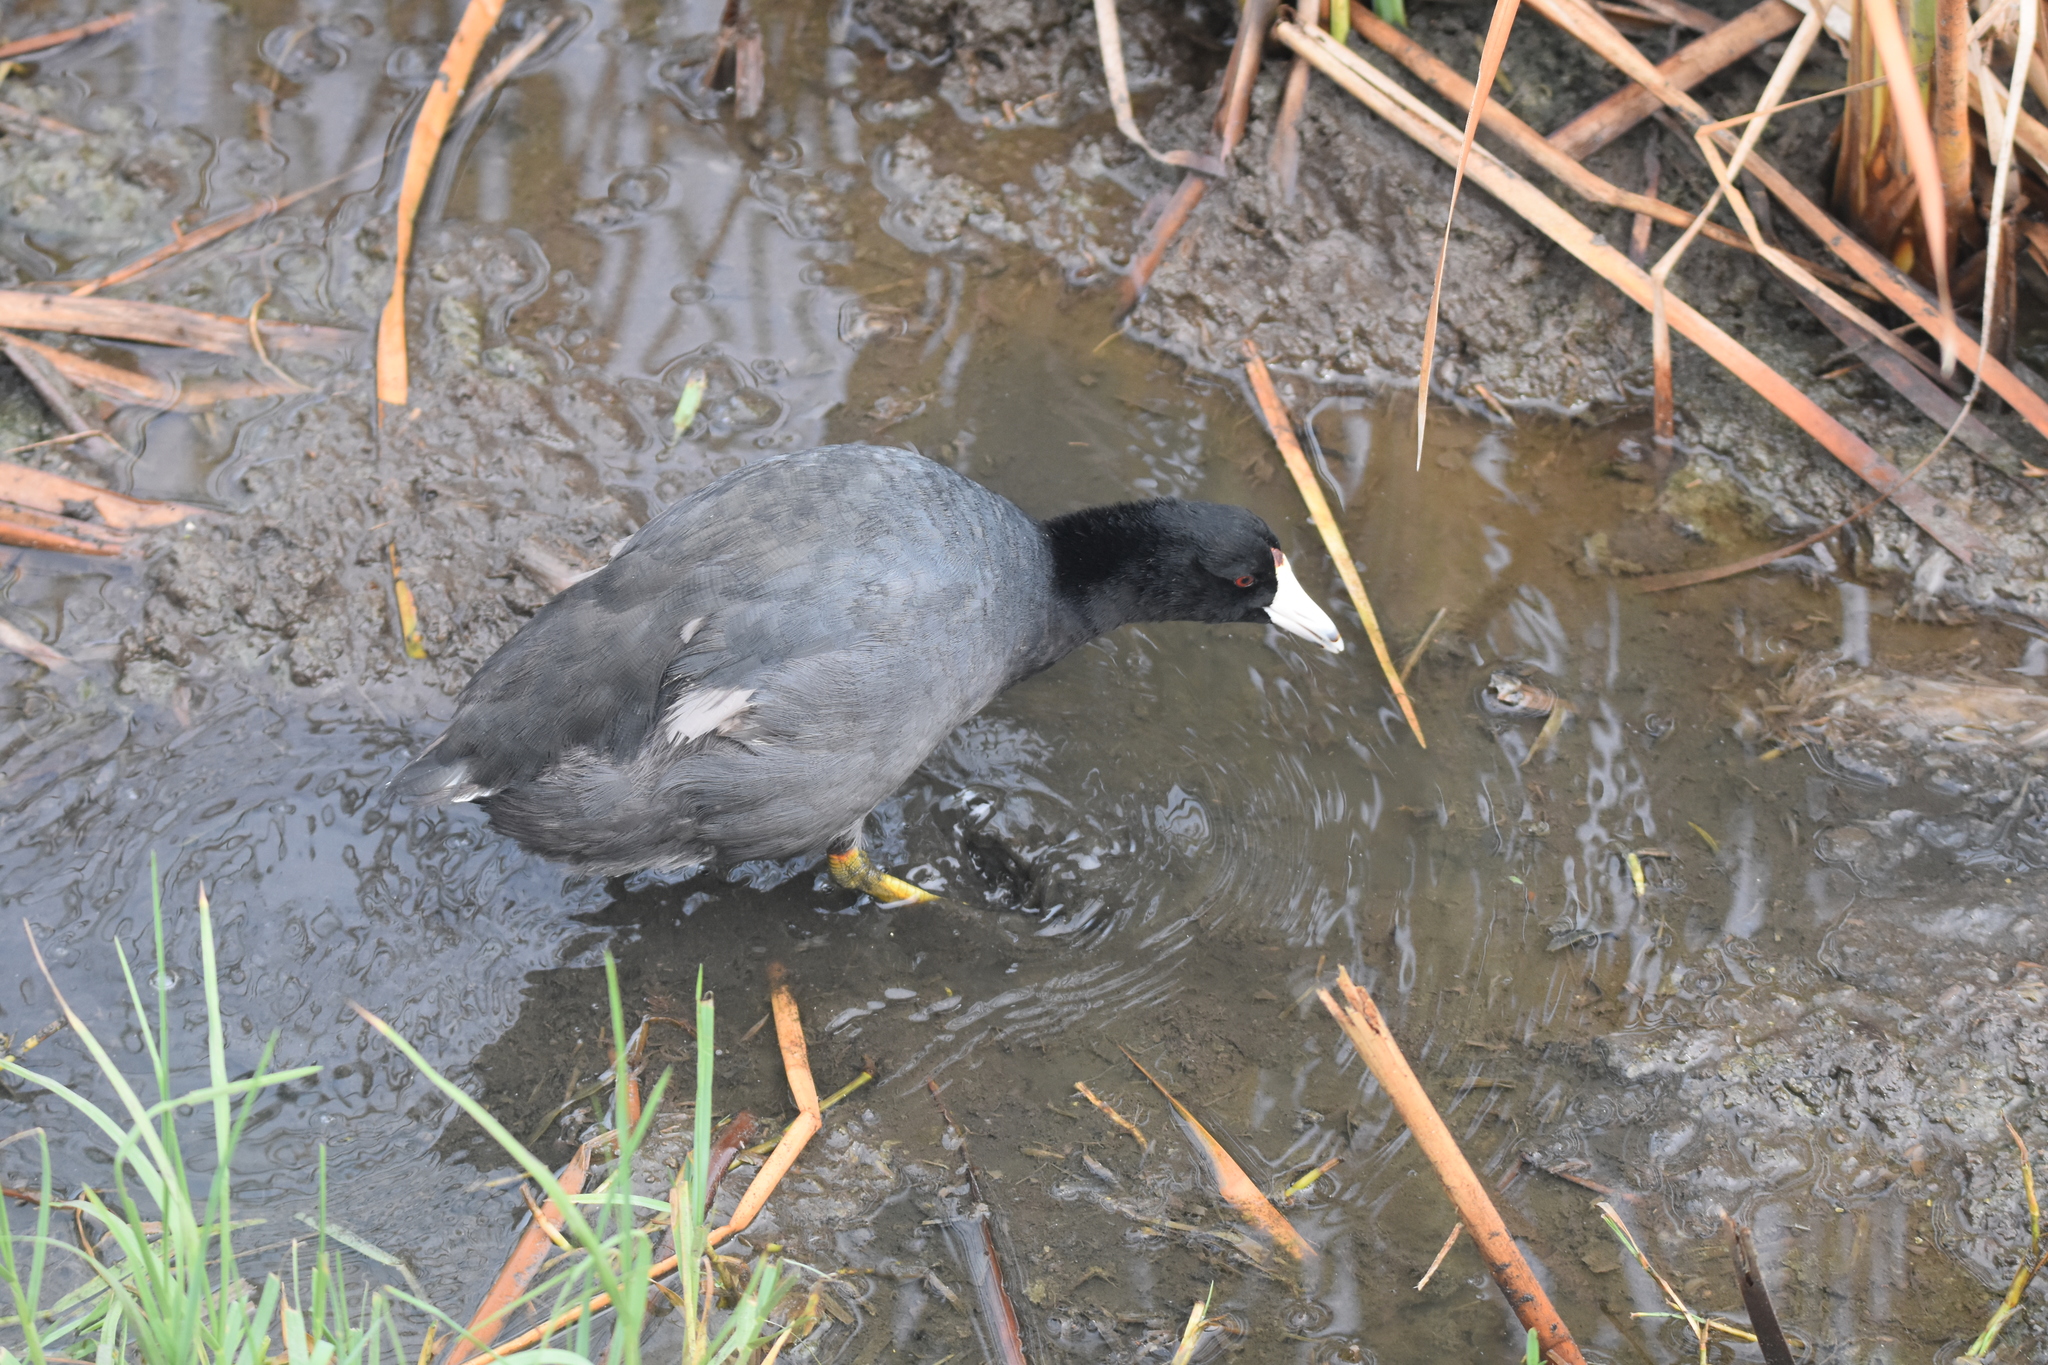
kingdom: Animalia
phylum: Chordata
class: Aves
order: Gruiformes
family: Rallidae
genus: Fulica
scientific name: Fulica americana
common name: American coot
